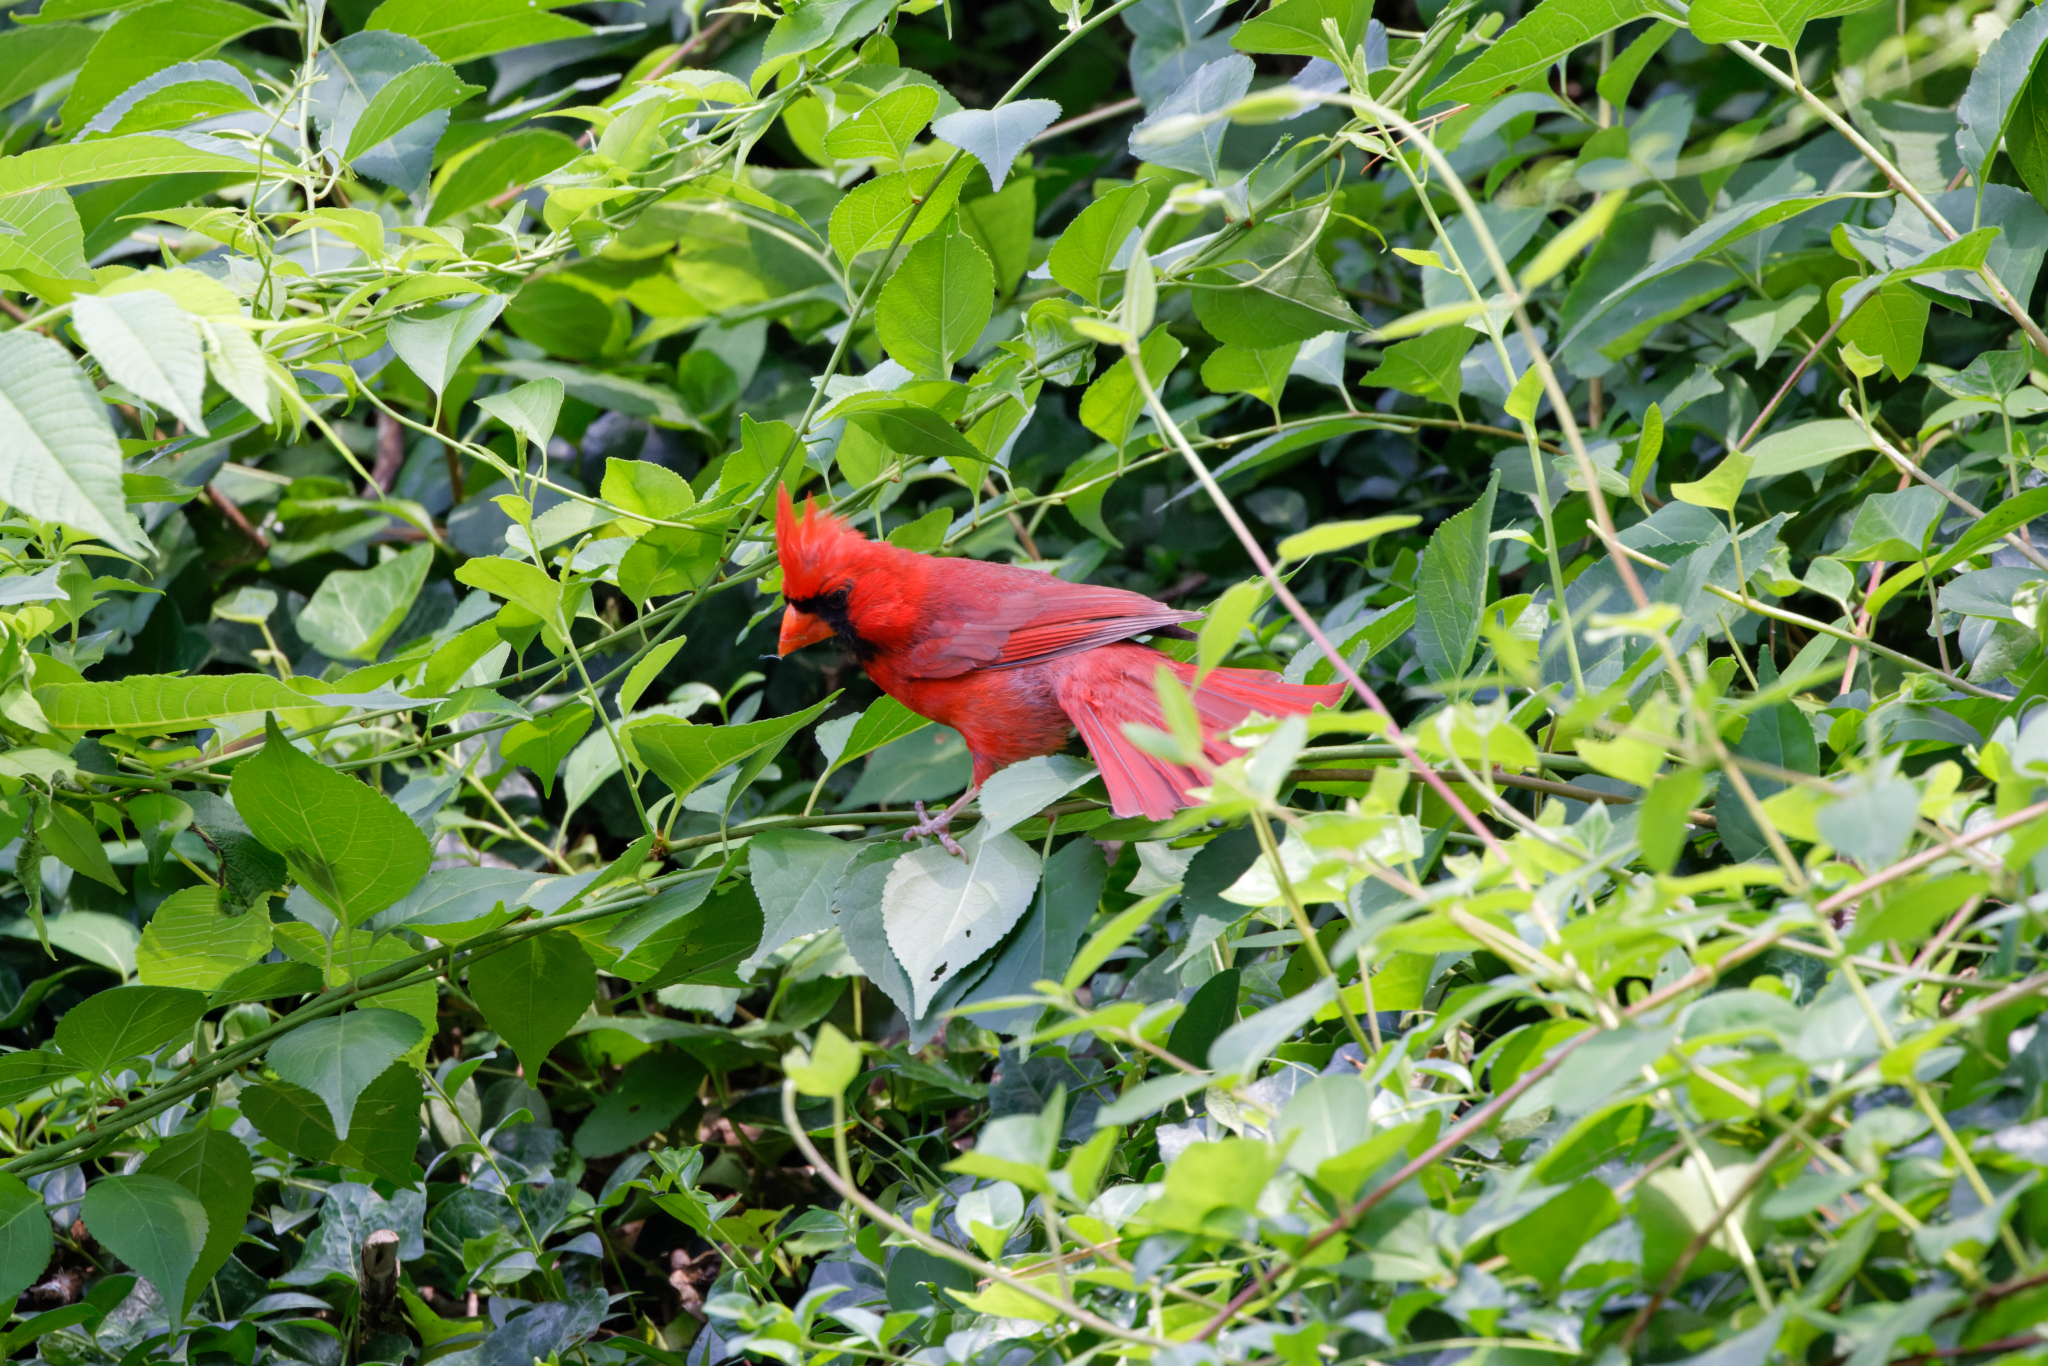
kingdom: Animalia
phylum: Chordata
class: Aves
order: Passeriformes
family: Cardinalidae
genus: Cardinalis
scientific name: Cardinalis cardinalis
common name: Northern cardinal
